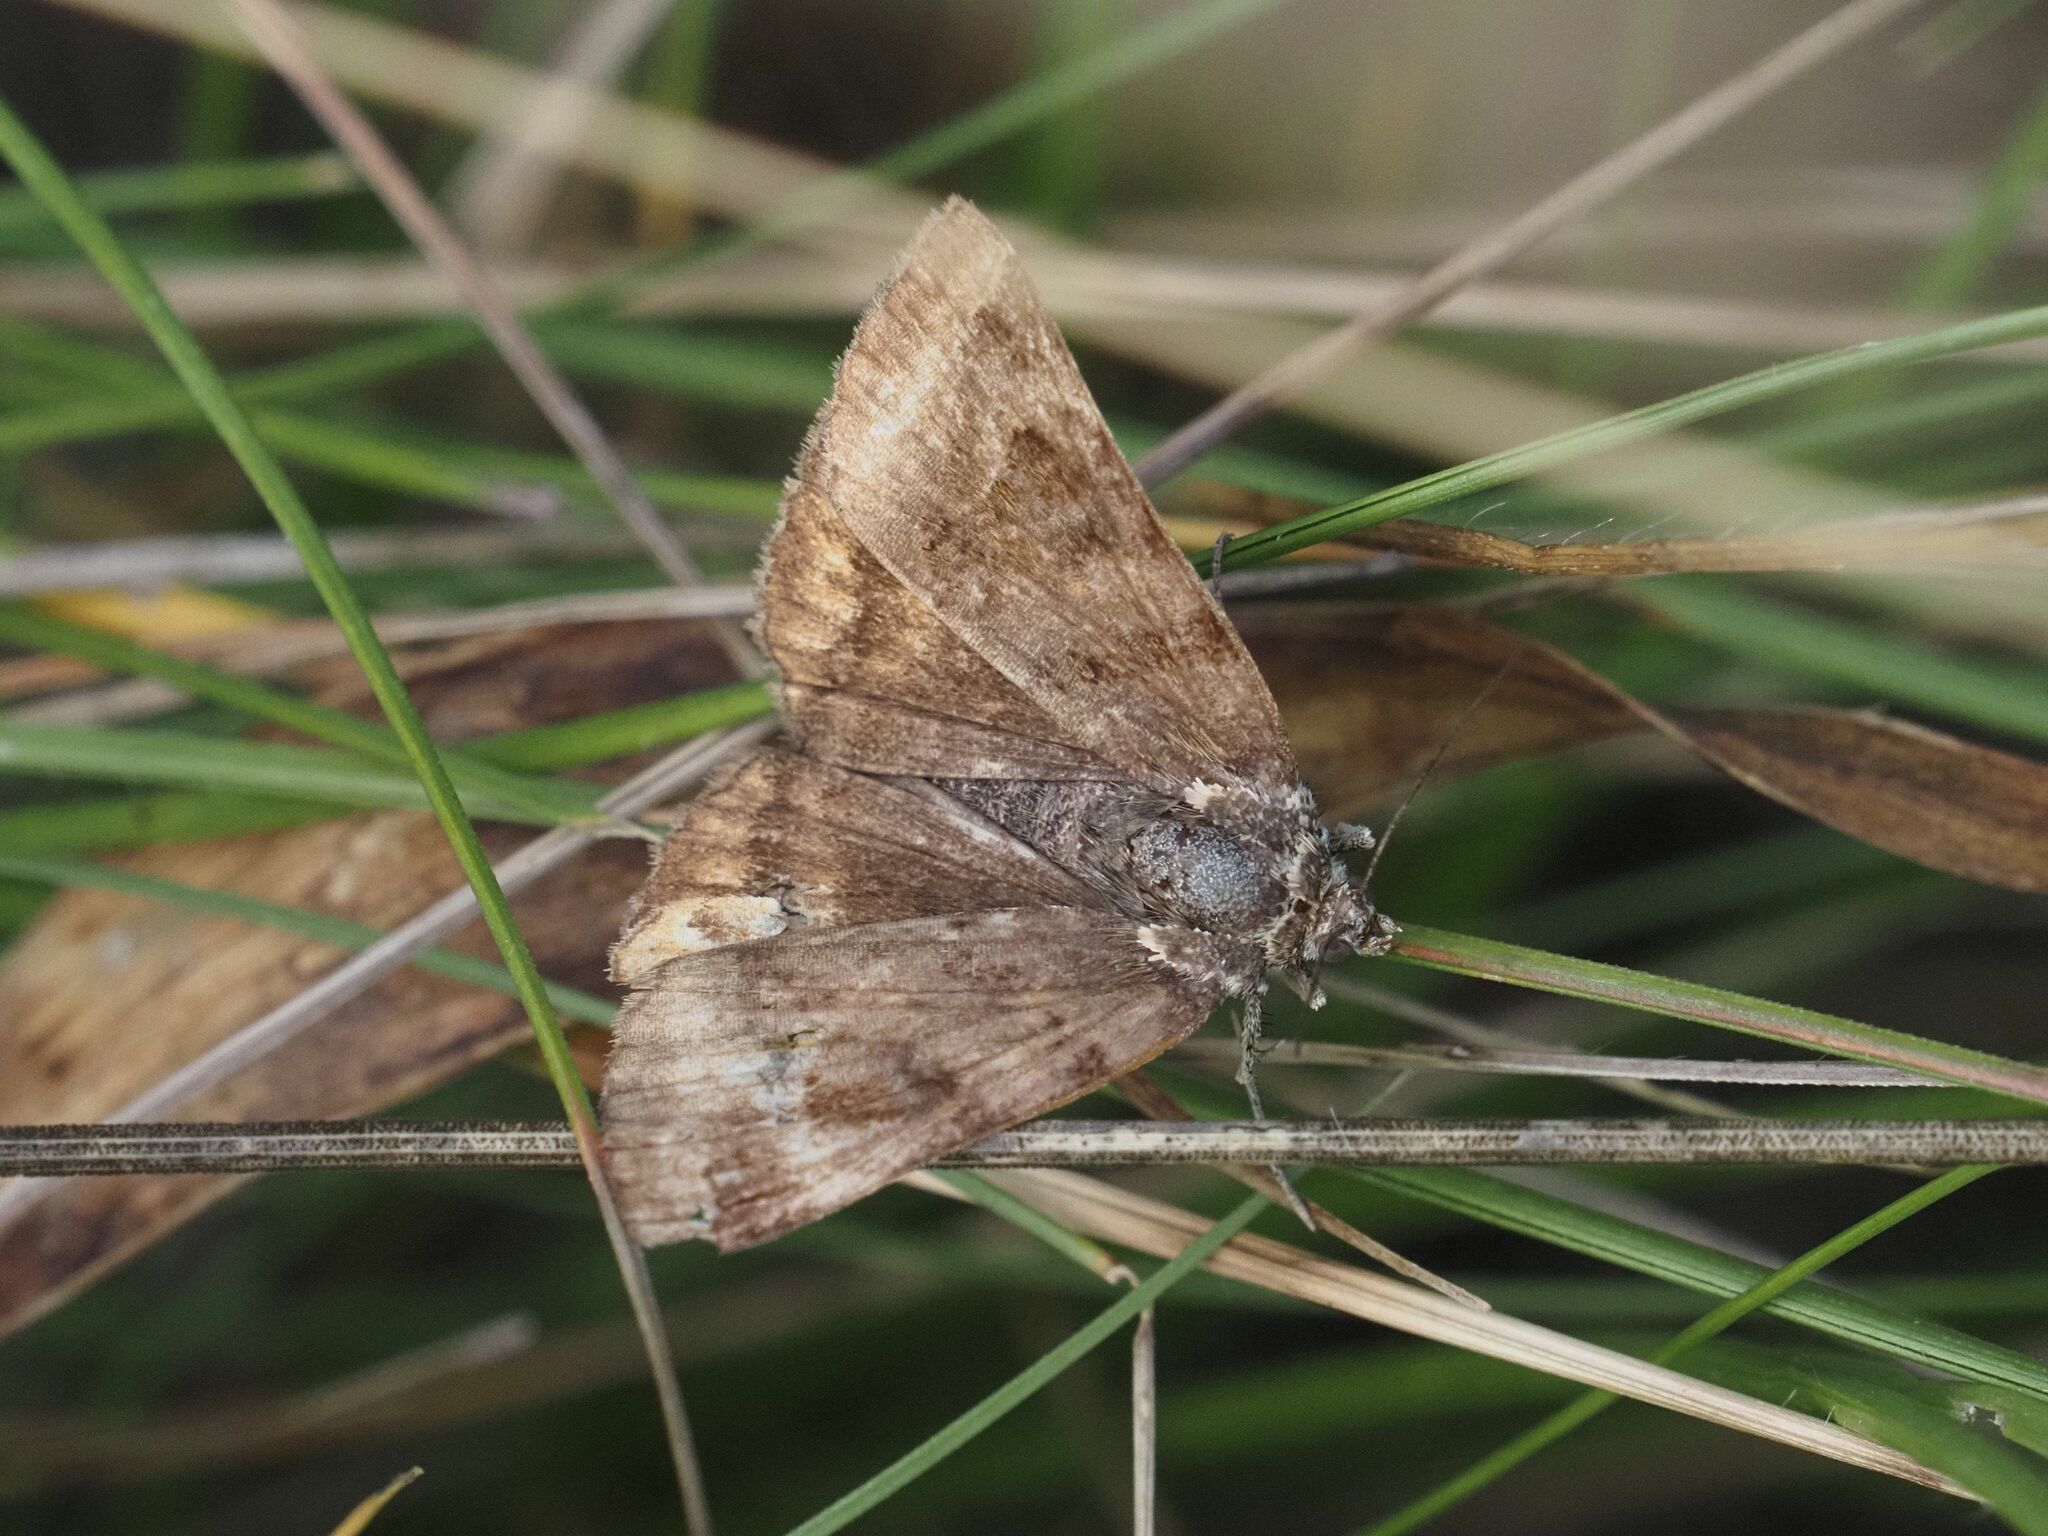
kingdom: Animalia
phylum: Arthropoda
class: Insecta
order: Lepidoptera
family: Erebidae
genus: Euclidia
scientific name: Euclidia glyphica
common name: Burnet companion
